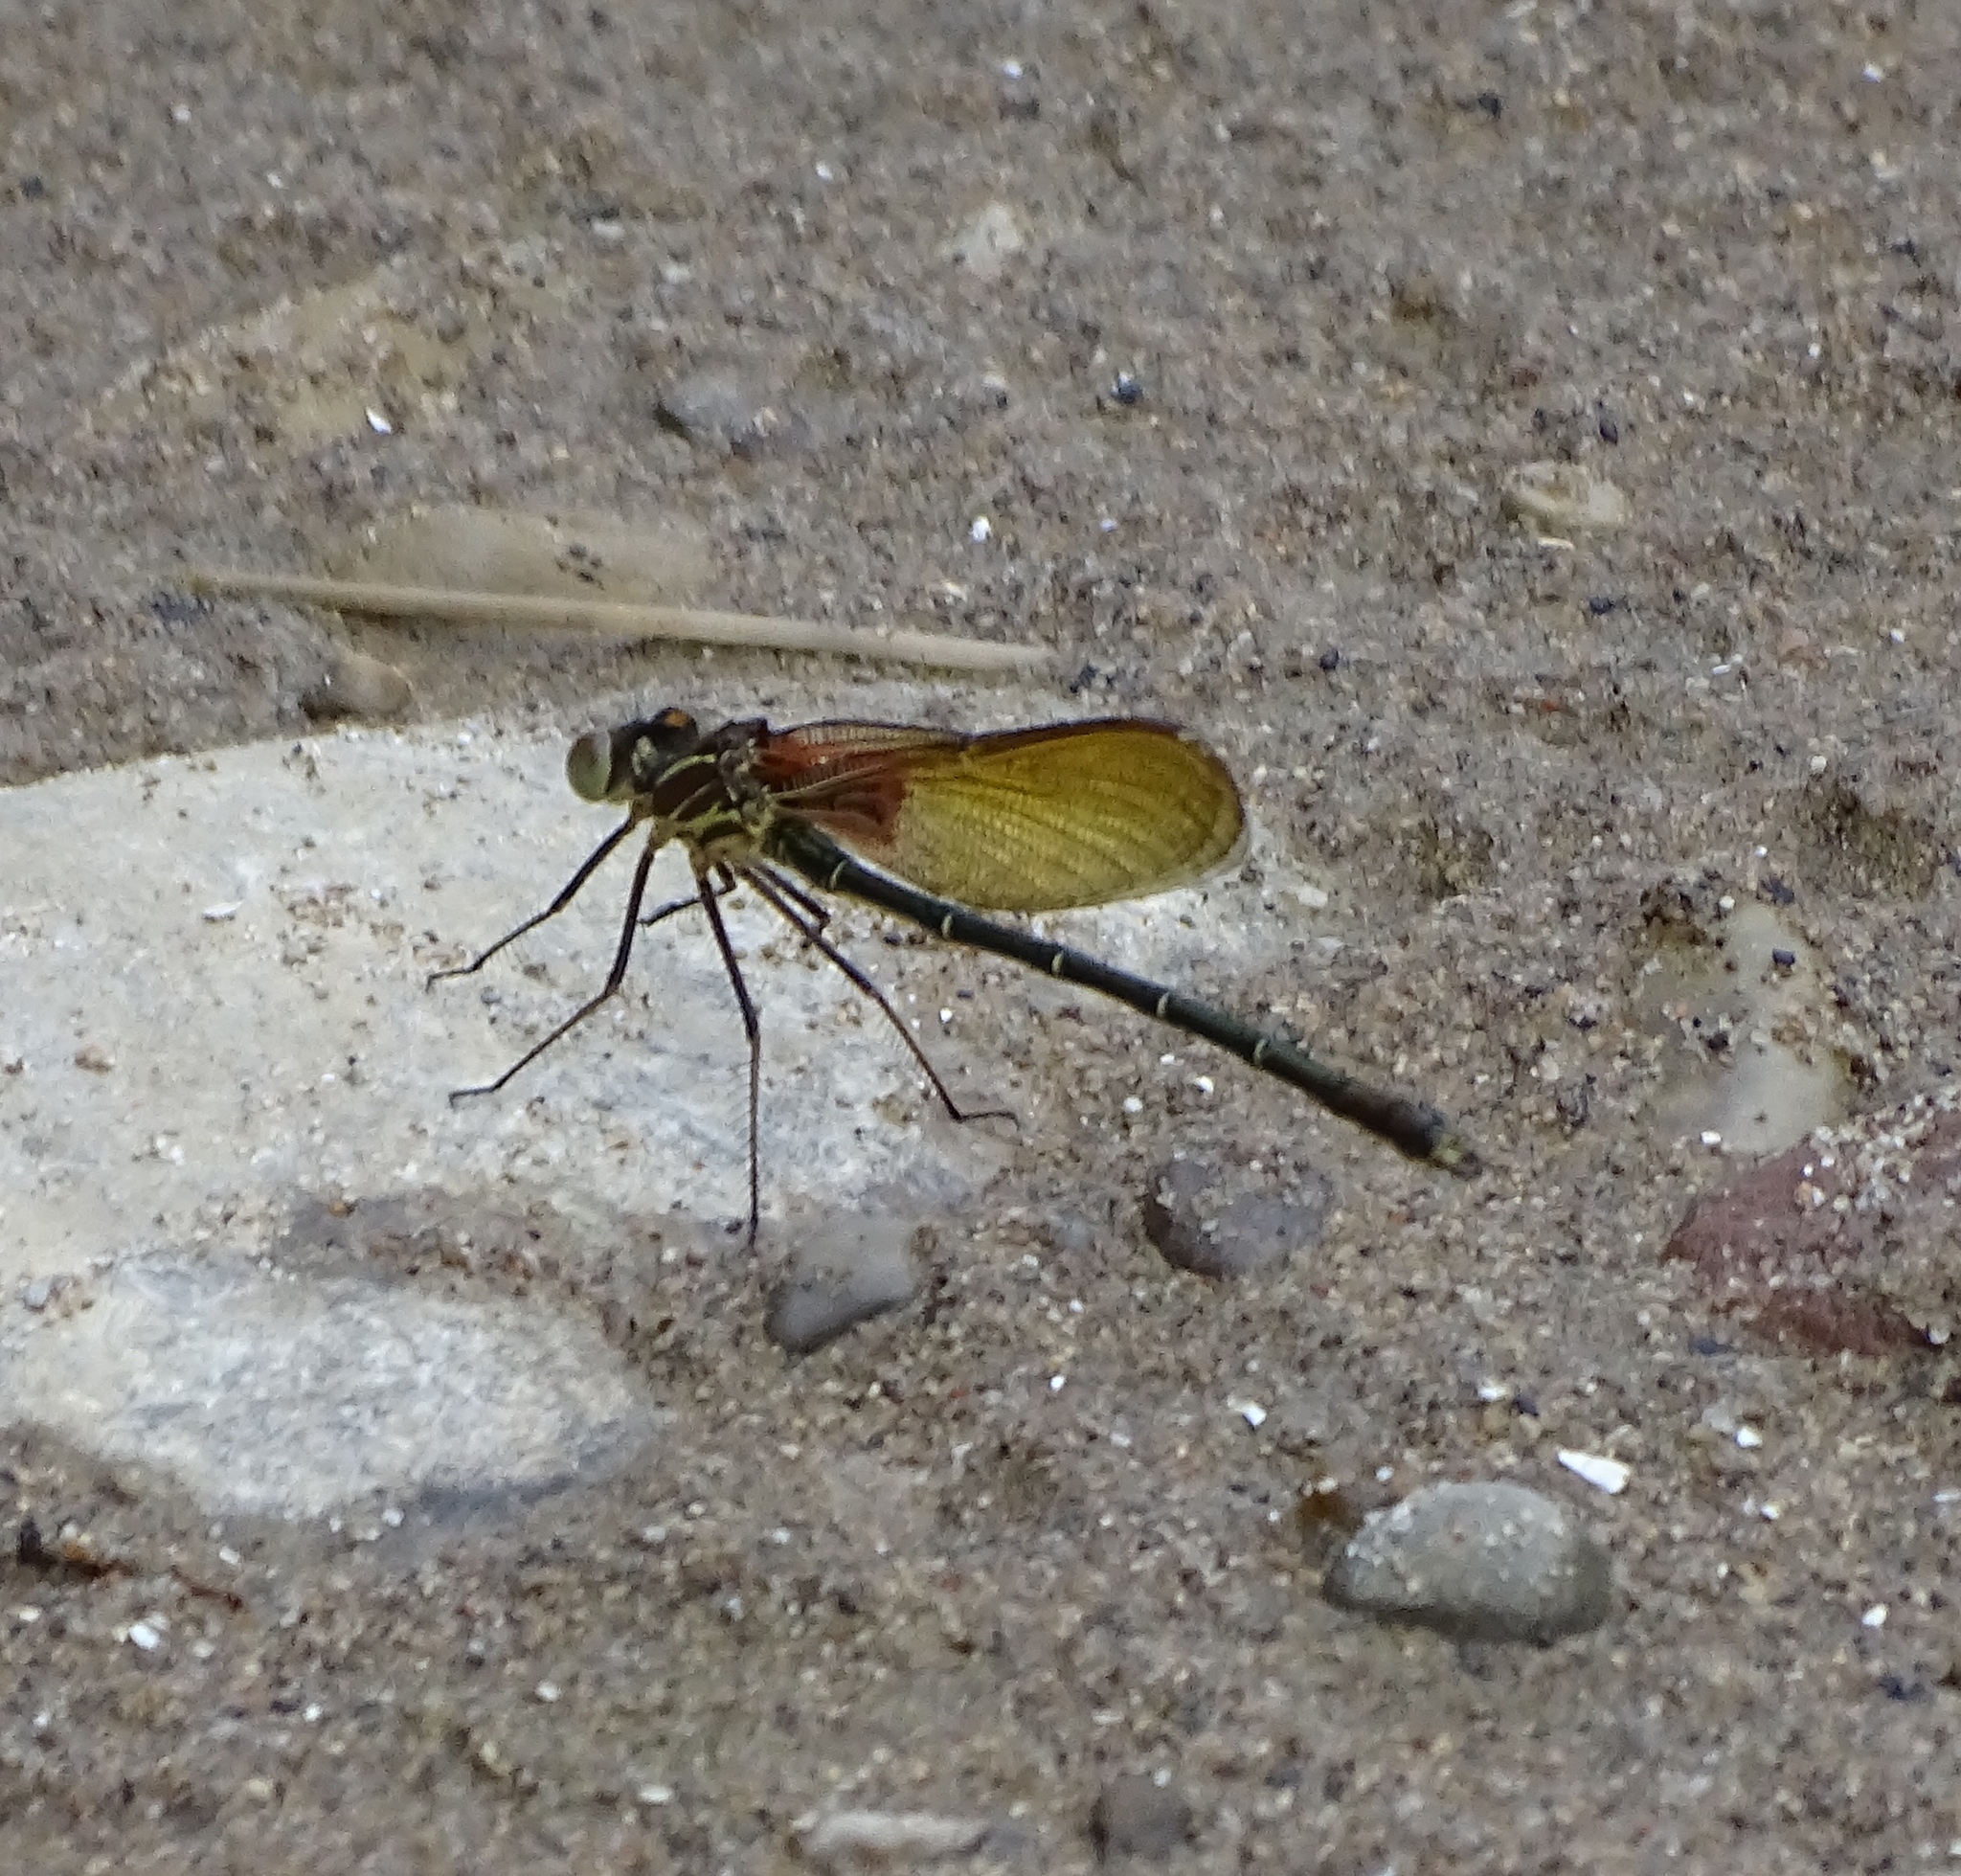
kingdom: Animalia
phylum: Arthropoda
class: Insecta
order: Odonata
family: Calopterygidae
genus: Hetaerina
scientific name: Hetaerina americana
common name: American rubyspot
